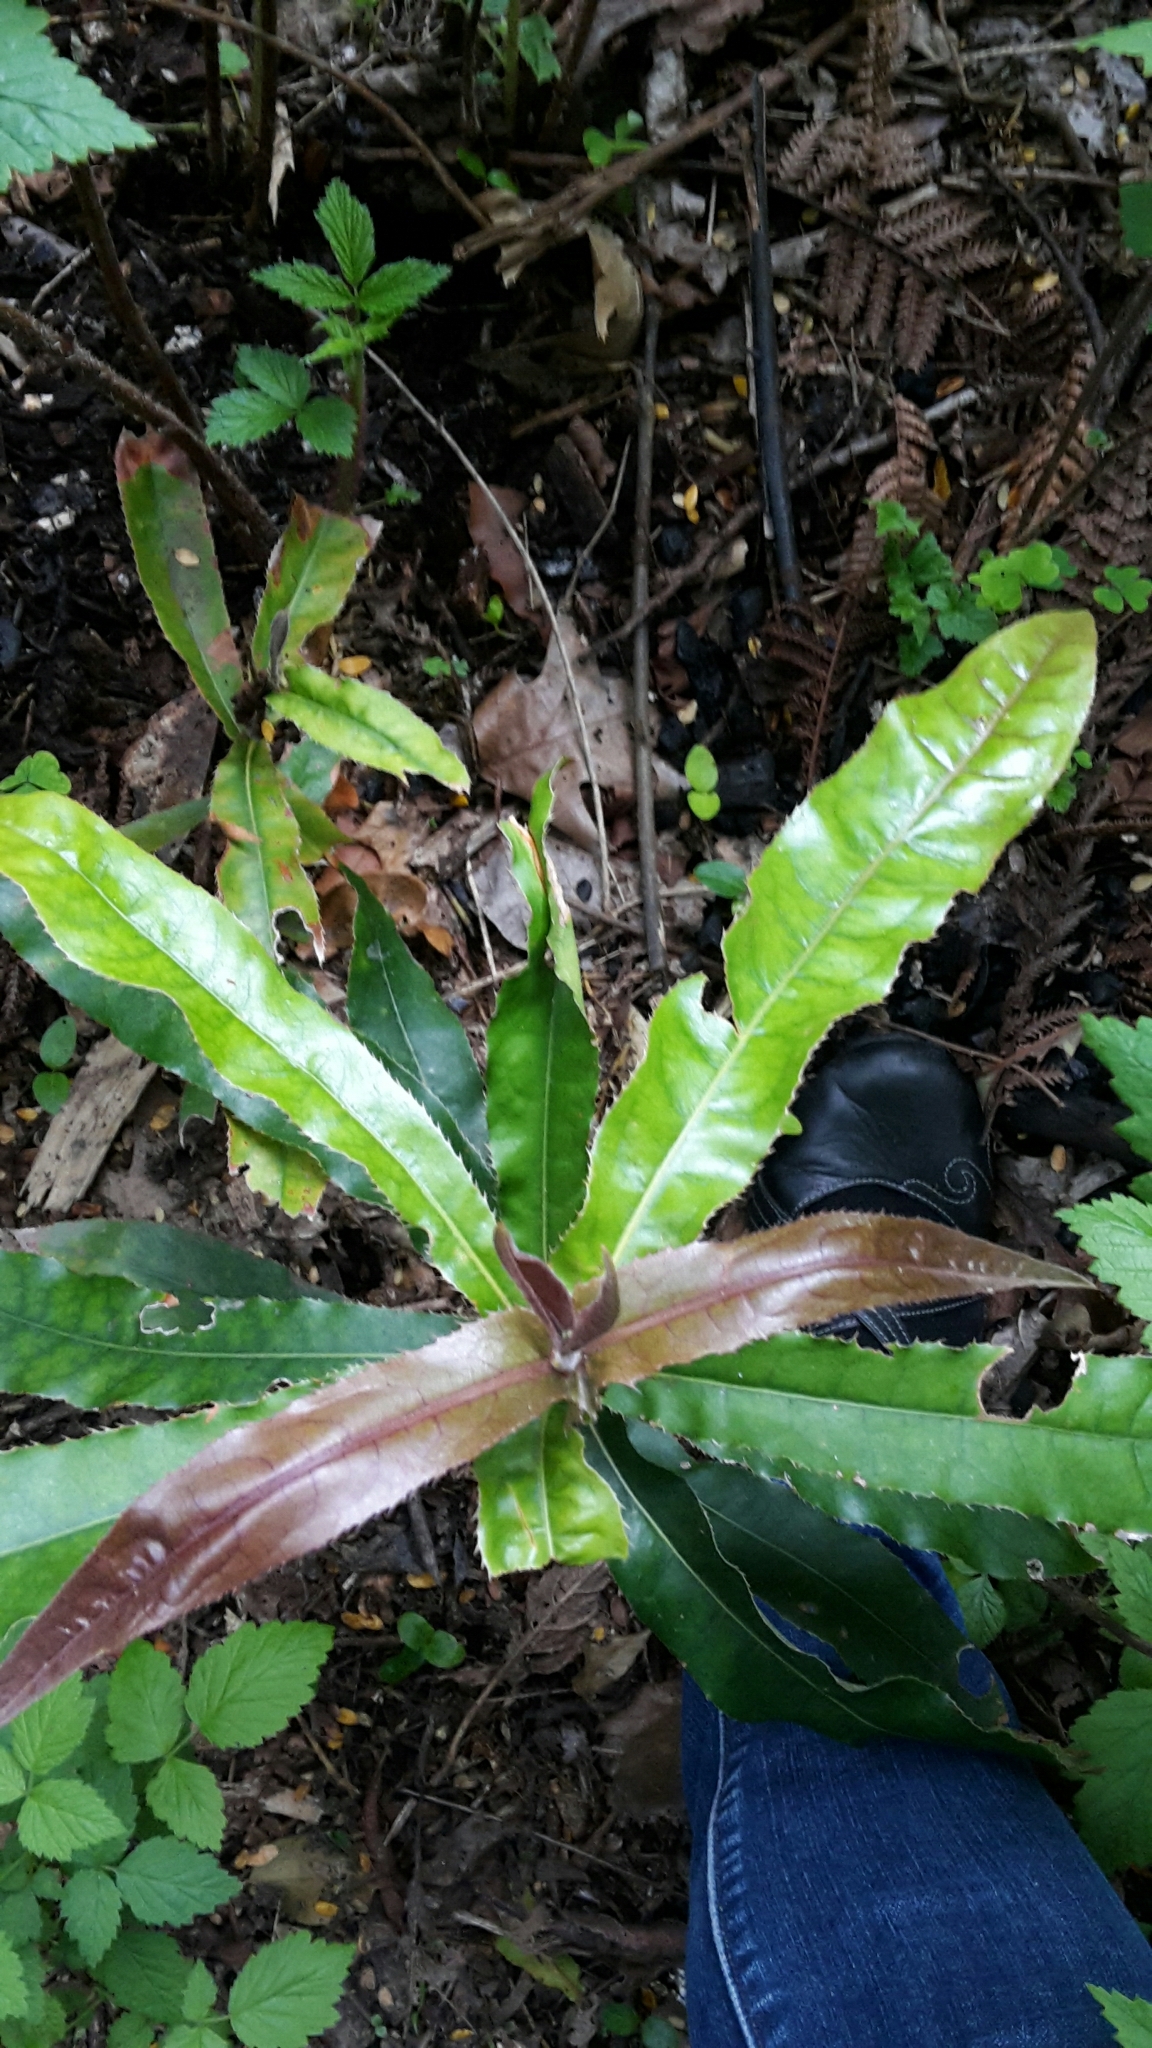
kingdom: Plantae
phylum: Tracheophyta
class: Magnoliopsida
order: Proteales
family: Proteaceae
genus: Macadamia
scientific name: Macadamia integrifolia
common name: Macadamia
